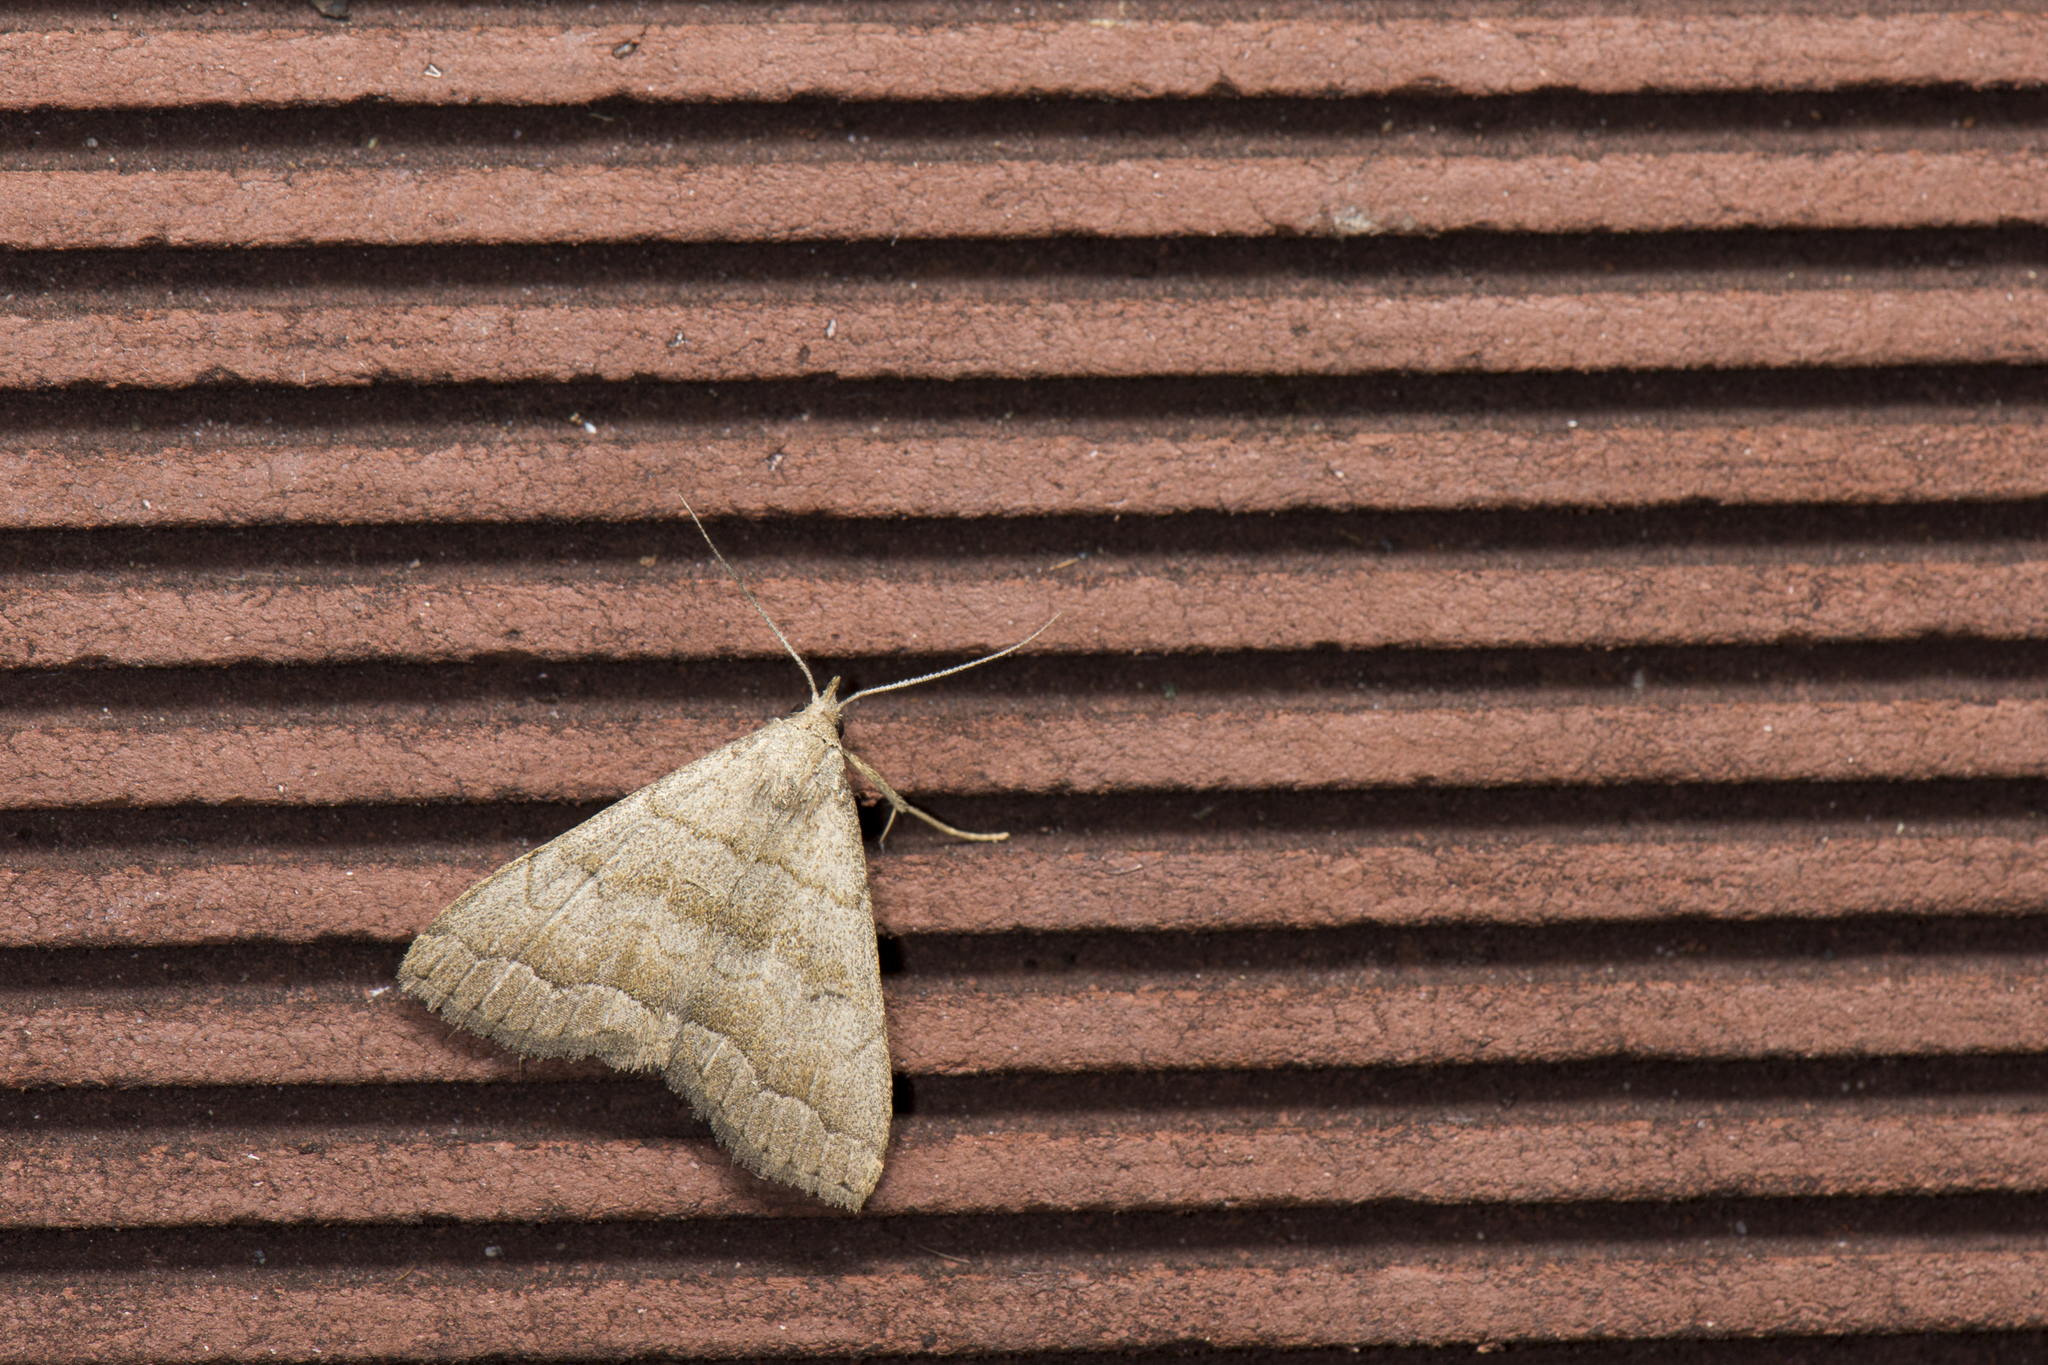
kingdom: Animalia
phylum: Arthropoda
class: Insecta
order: Lepidoptera
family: Erebidae
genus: Herminia
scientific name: Herminia vermiculata
